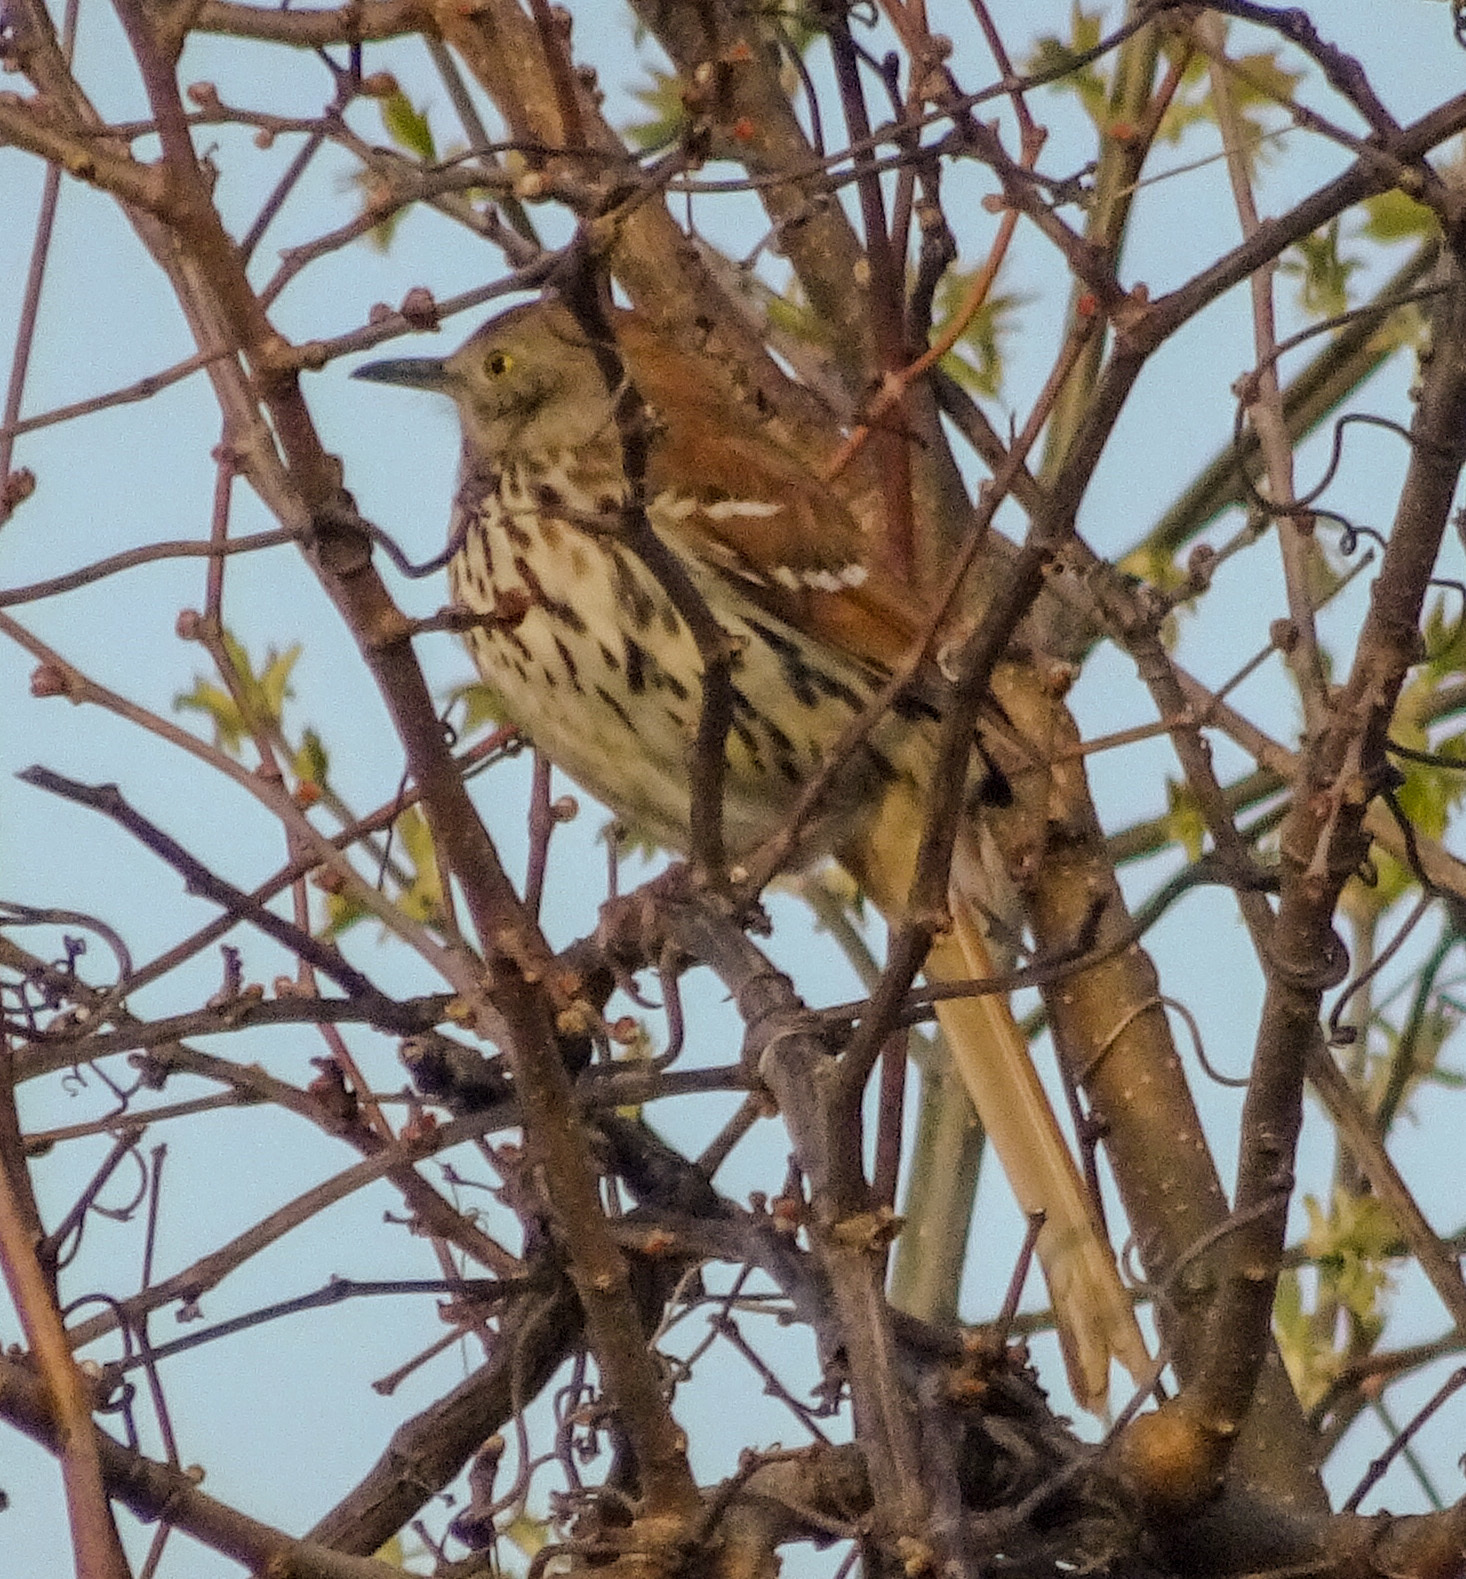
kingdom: Animalia
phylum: Chordata
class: Aves
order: Passeriformes
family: Mimidae
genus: Toxostoma
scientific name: Toxostoma rufum
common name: Brown thrasher
